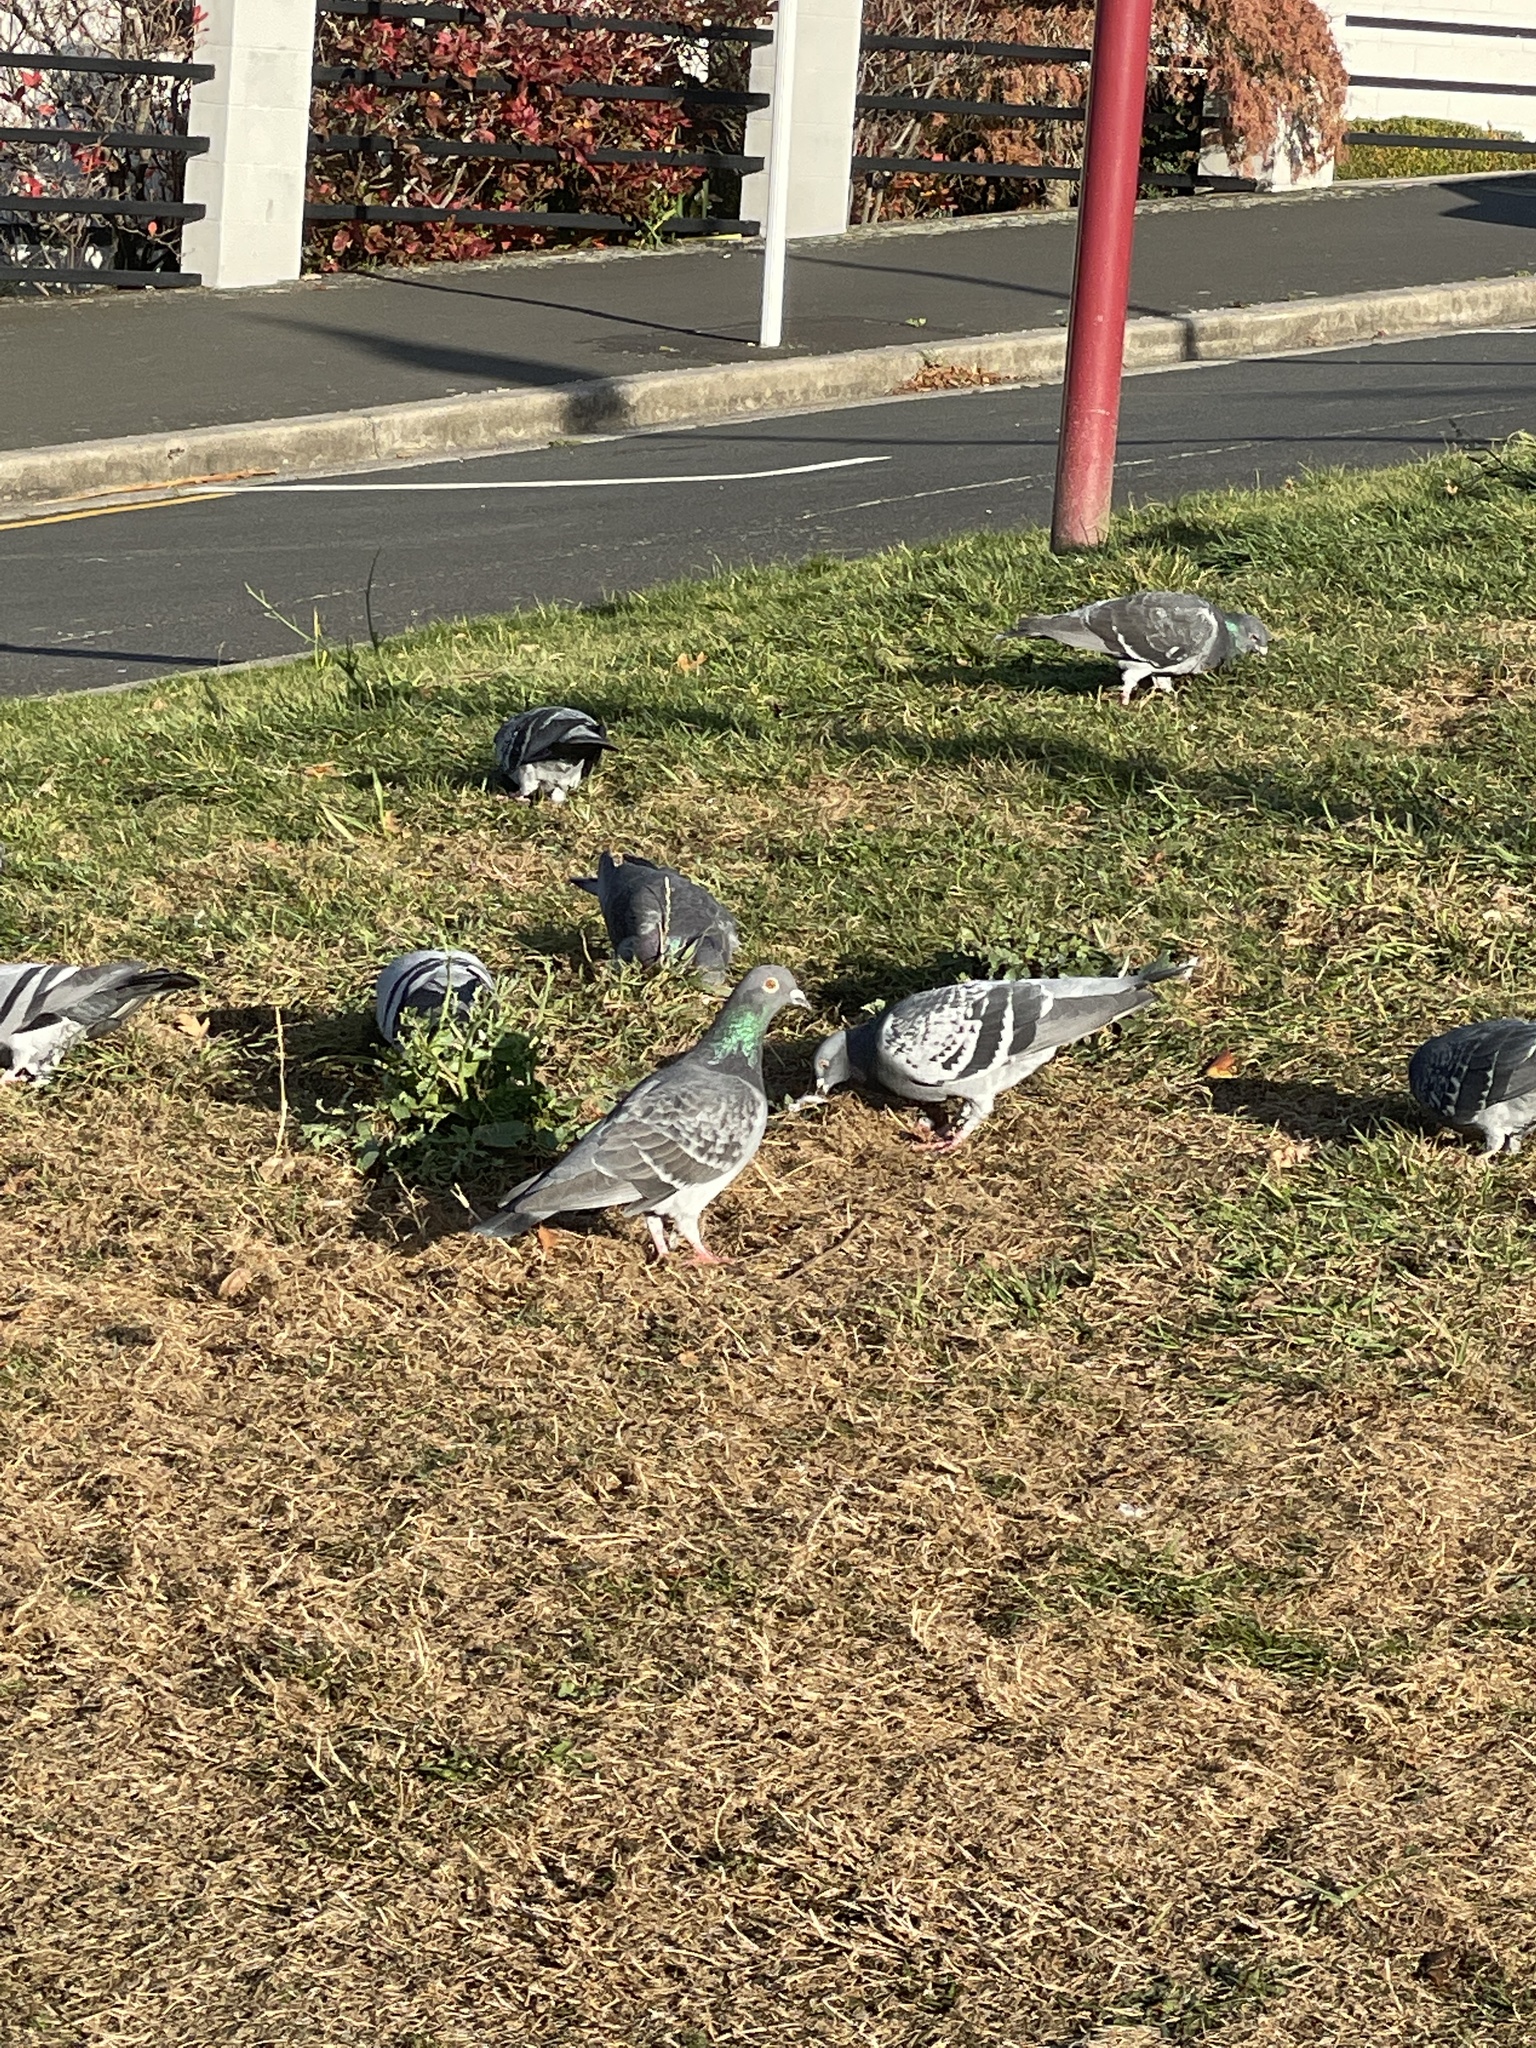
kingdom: Animalia
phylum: Chordata
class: Aves
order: Columbiformes
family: Columbidae
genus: Columba
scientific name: Columba livia
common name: Rock pigeon
